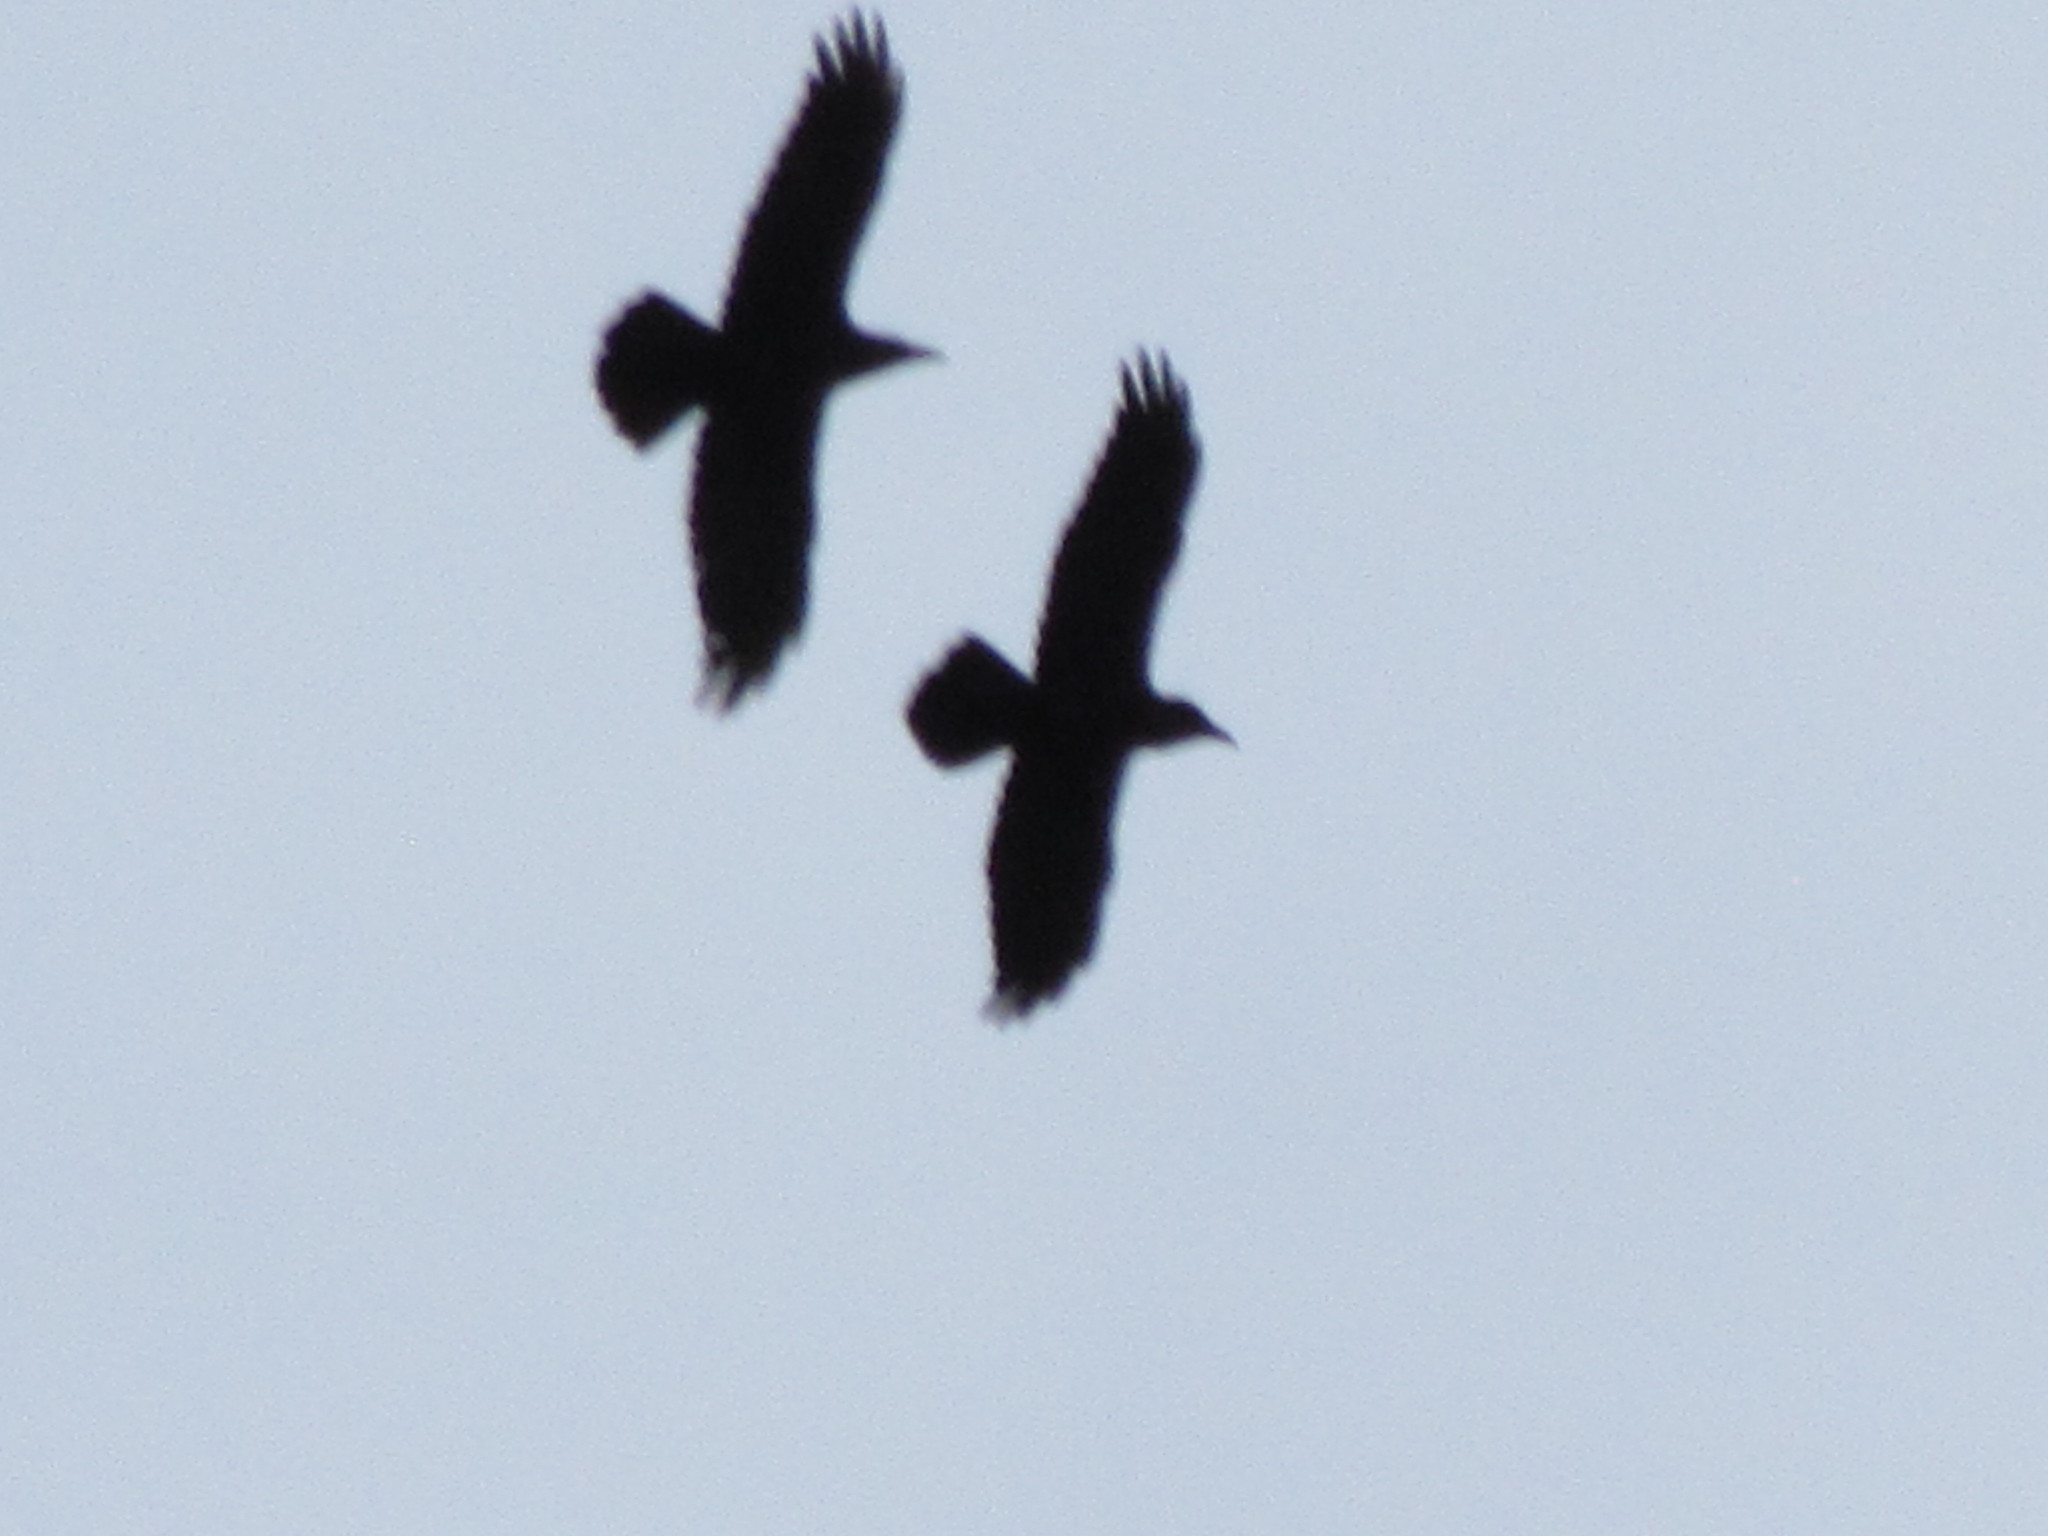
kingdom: Animalia
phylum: Chordata
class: Aves
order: Passeriformes
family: Corvidae
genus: Corvus
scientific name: Corvus corax
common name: Common raven
